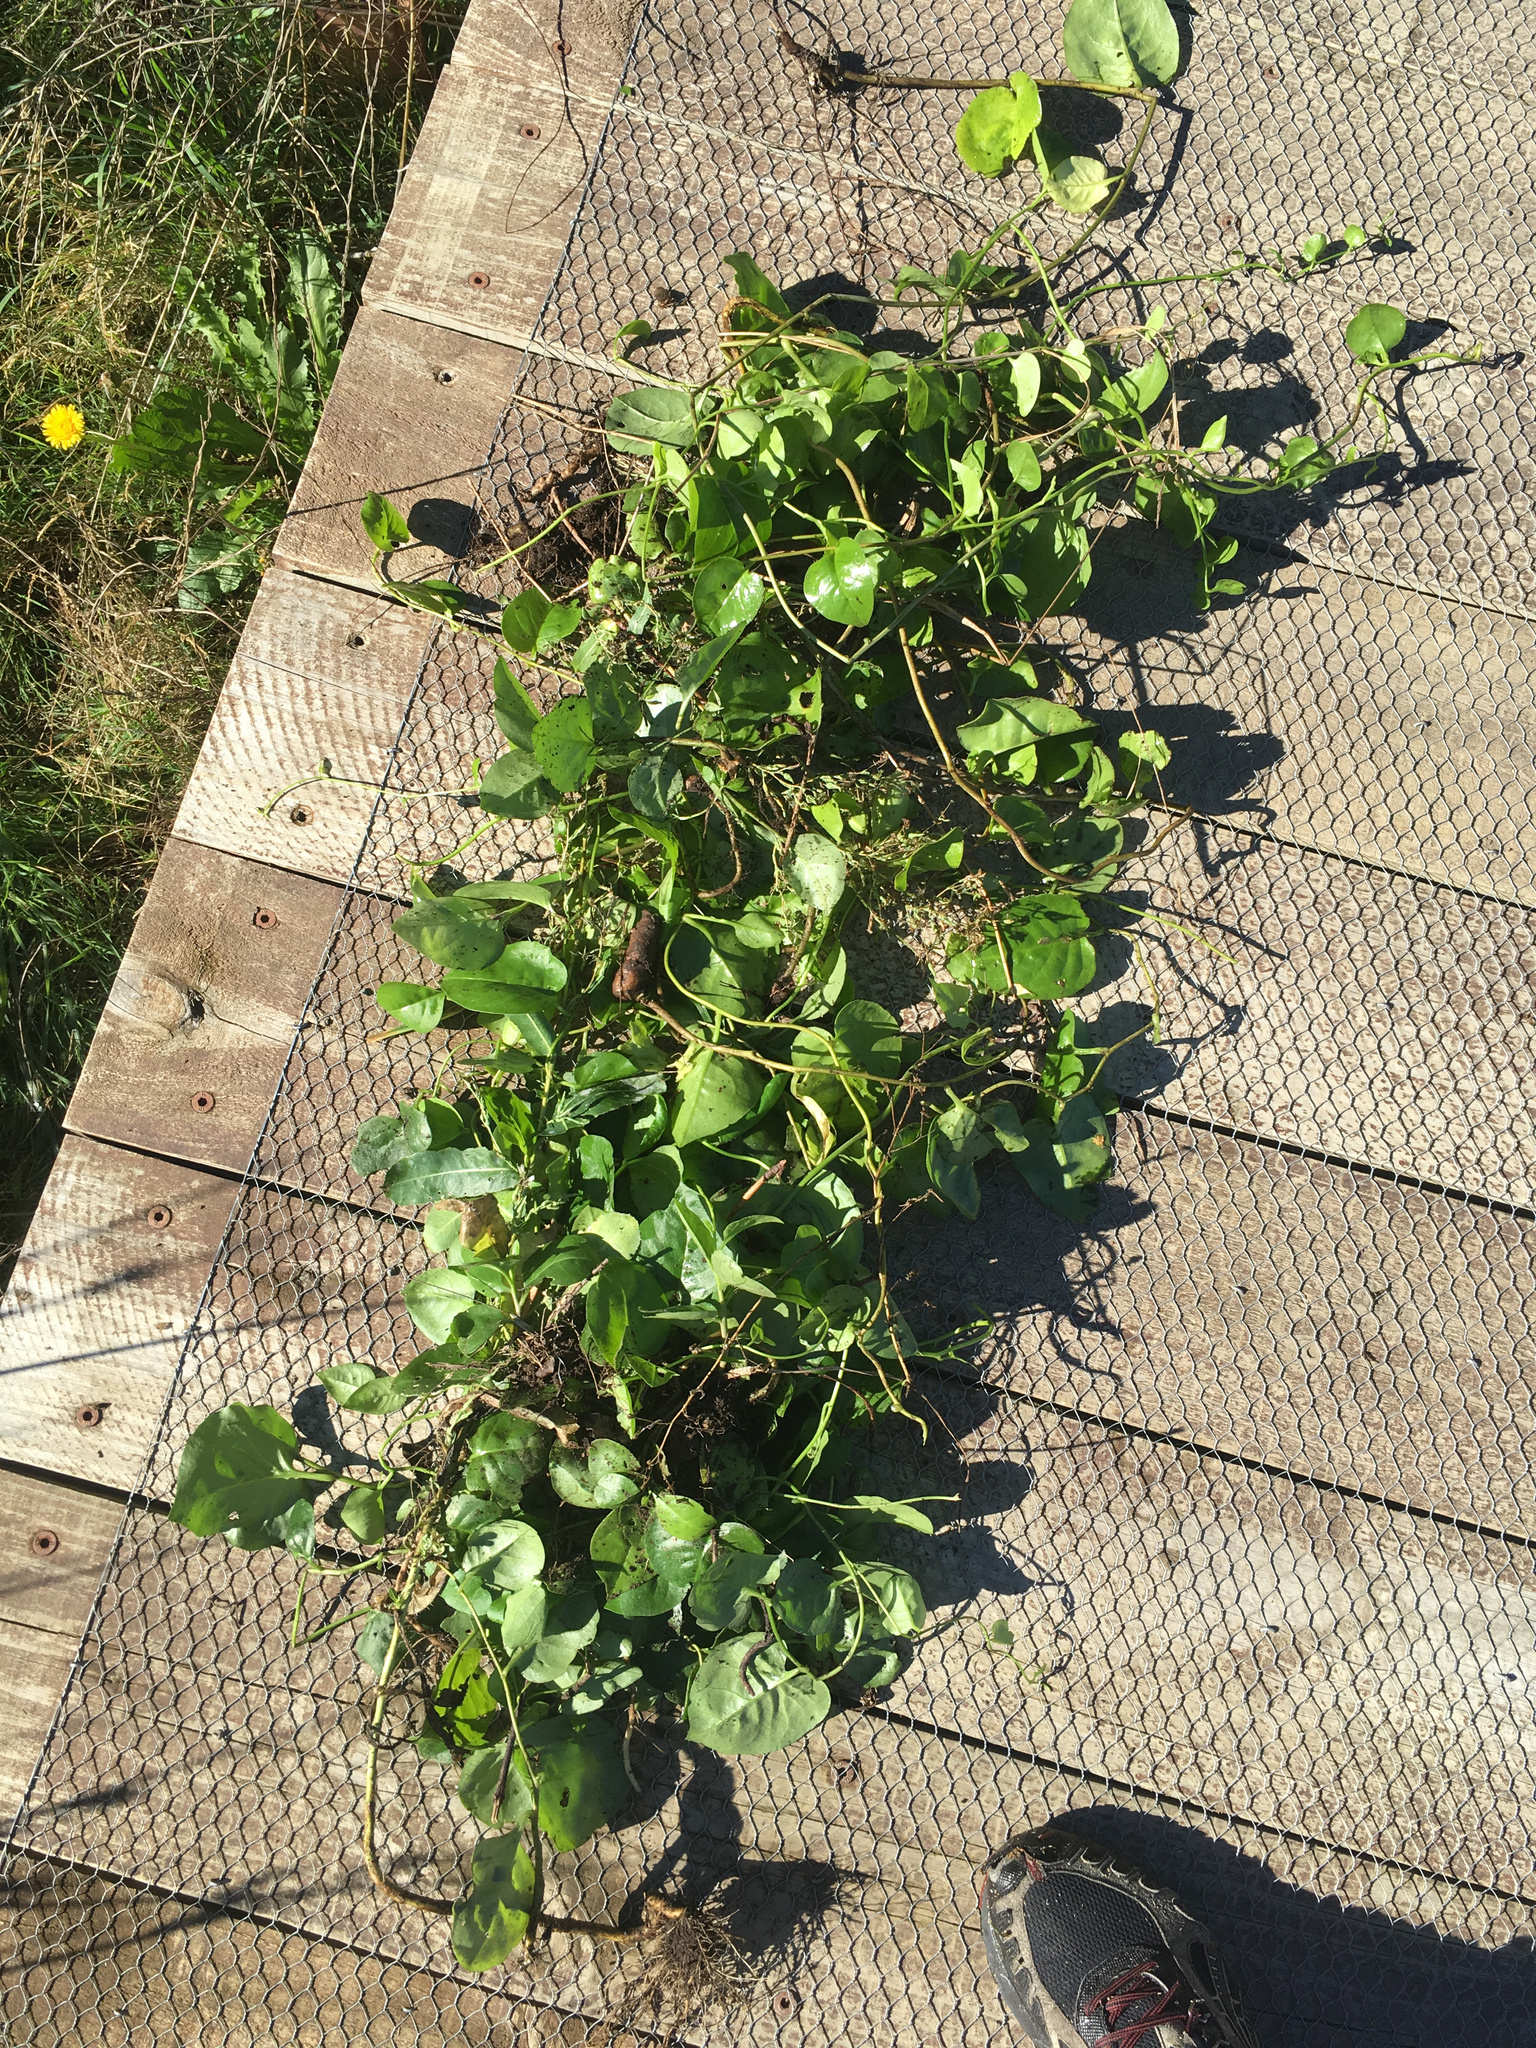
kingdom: Plantae
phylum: Tracheophyta
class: Magnoliopsida
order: Caryophyllales
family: Basellaceae
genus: Anredera
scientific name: Anredera cordifolia
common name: Heartleaf madeiravine
